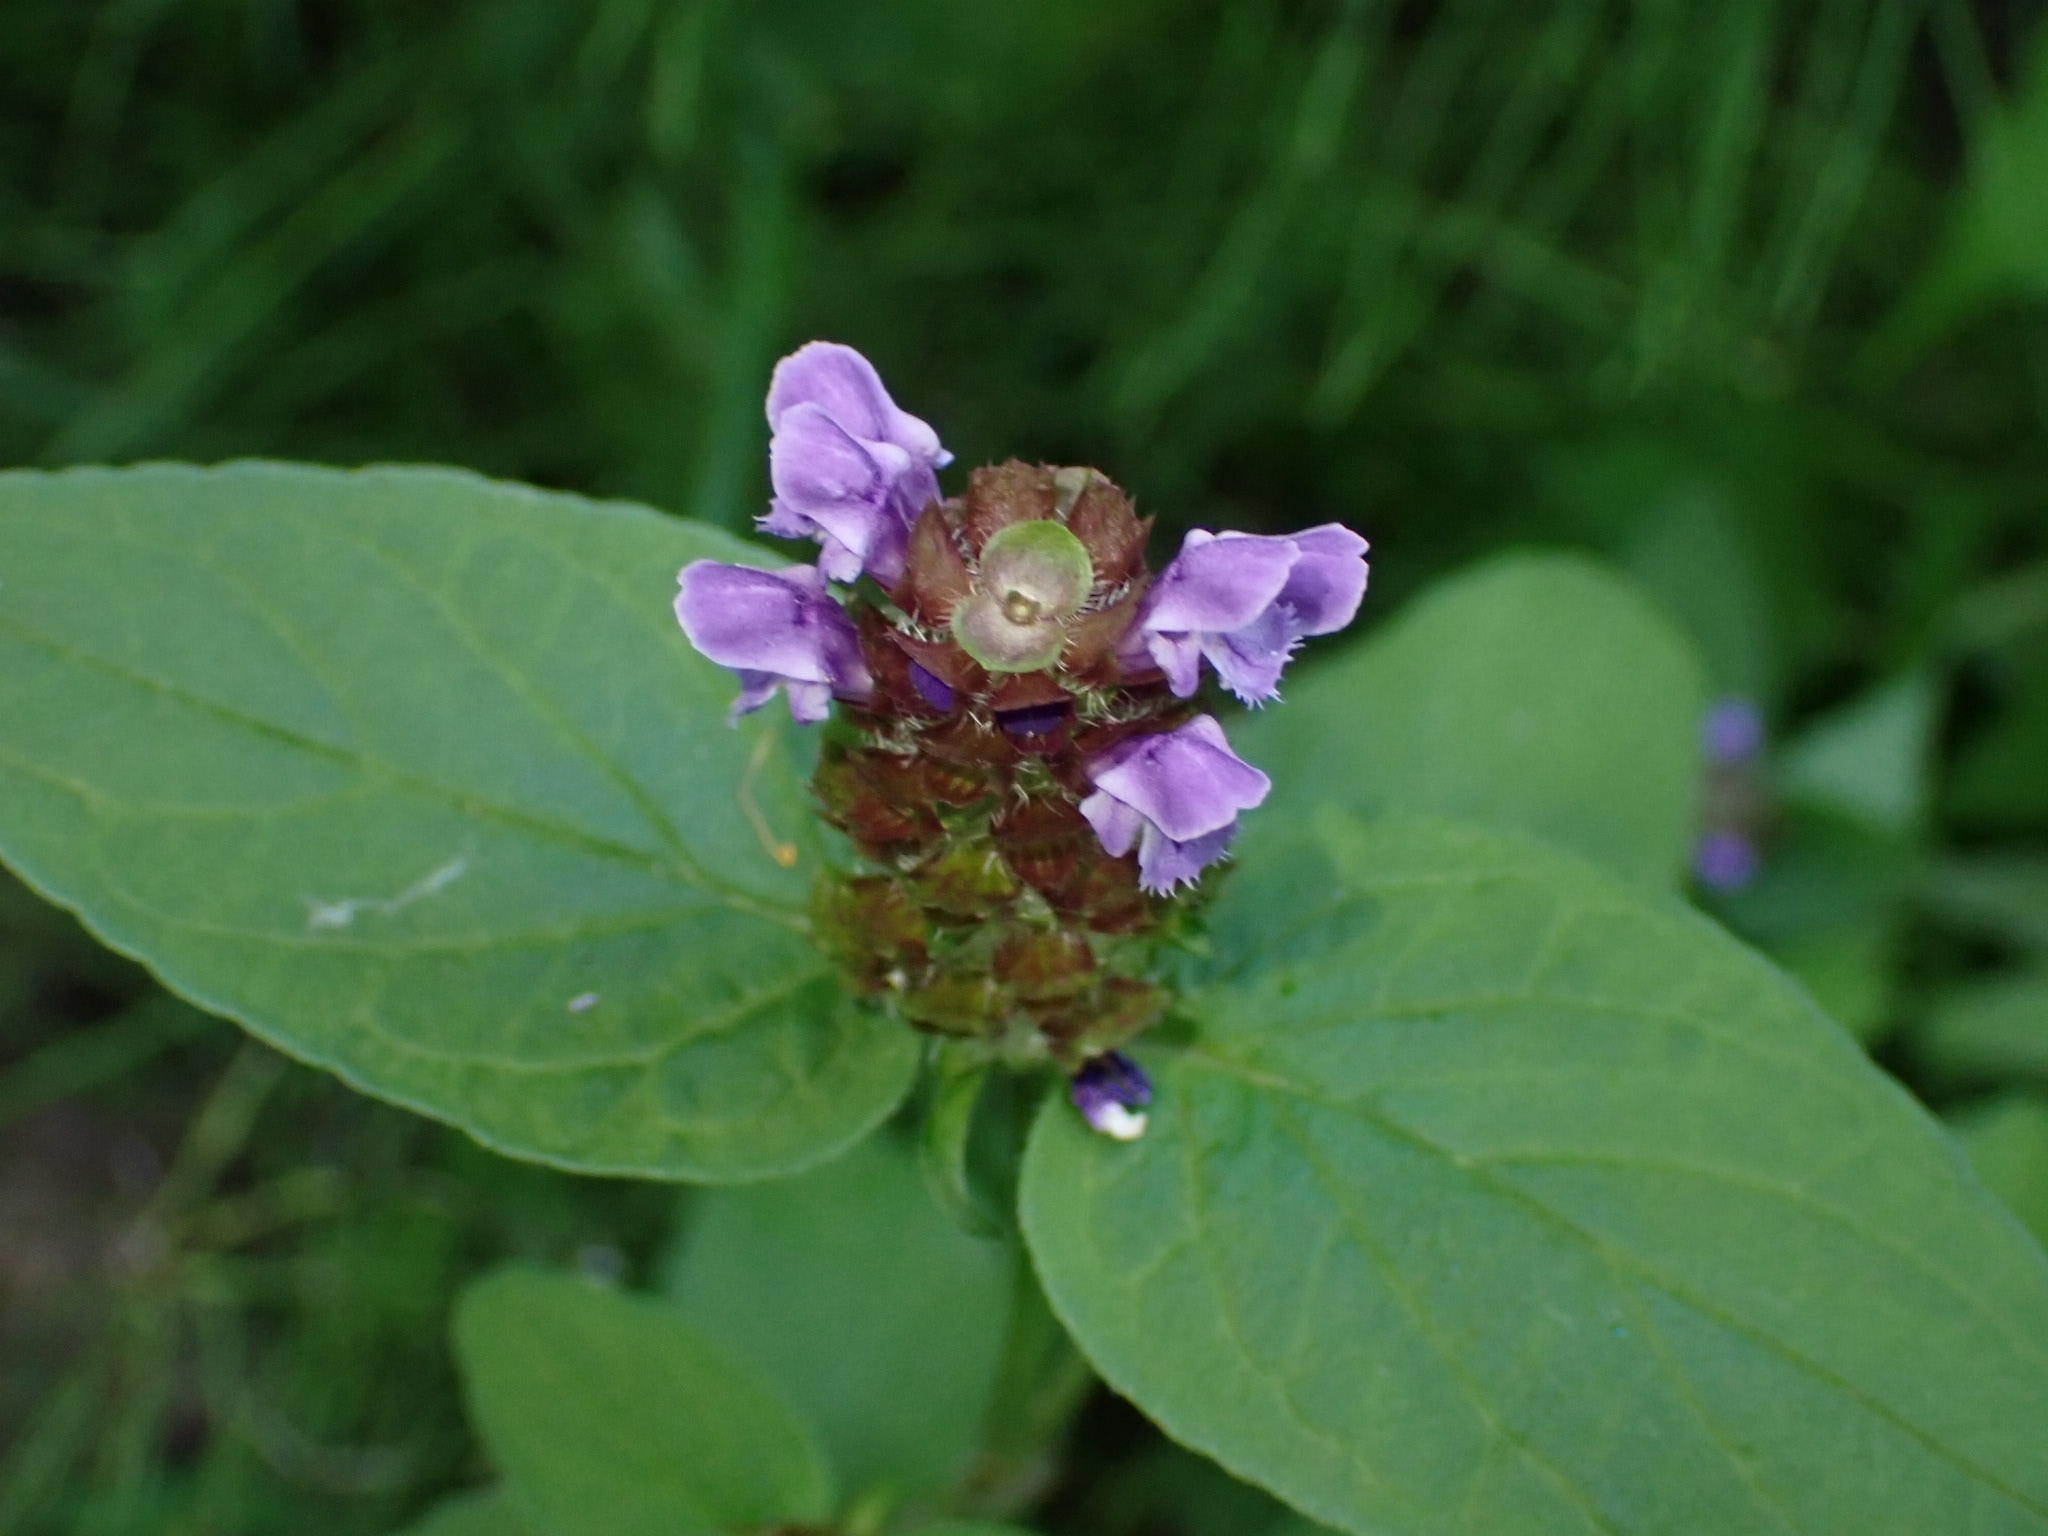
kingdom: Plantae
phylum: Tracheophyta
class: Magnoliopsida
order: Lamiales
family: Lamiaceae
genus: Prunella
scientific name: Prunella vulgaris
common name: Heal-all
